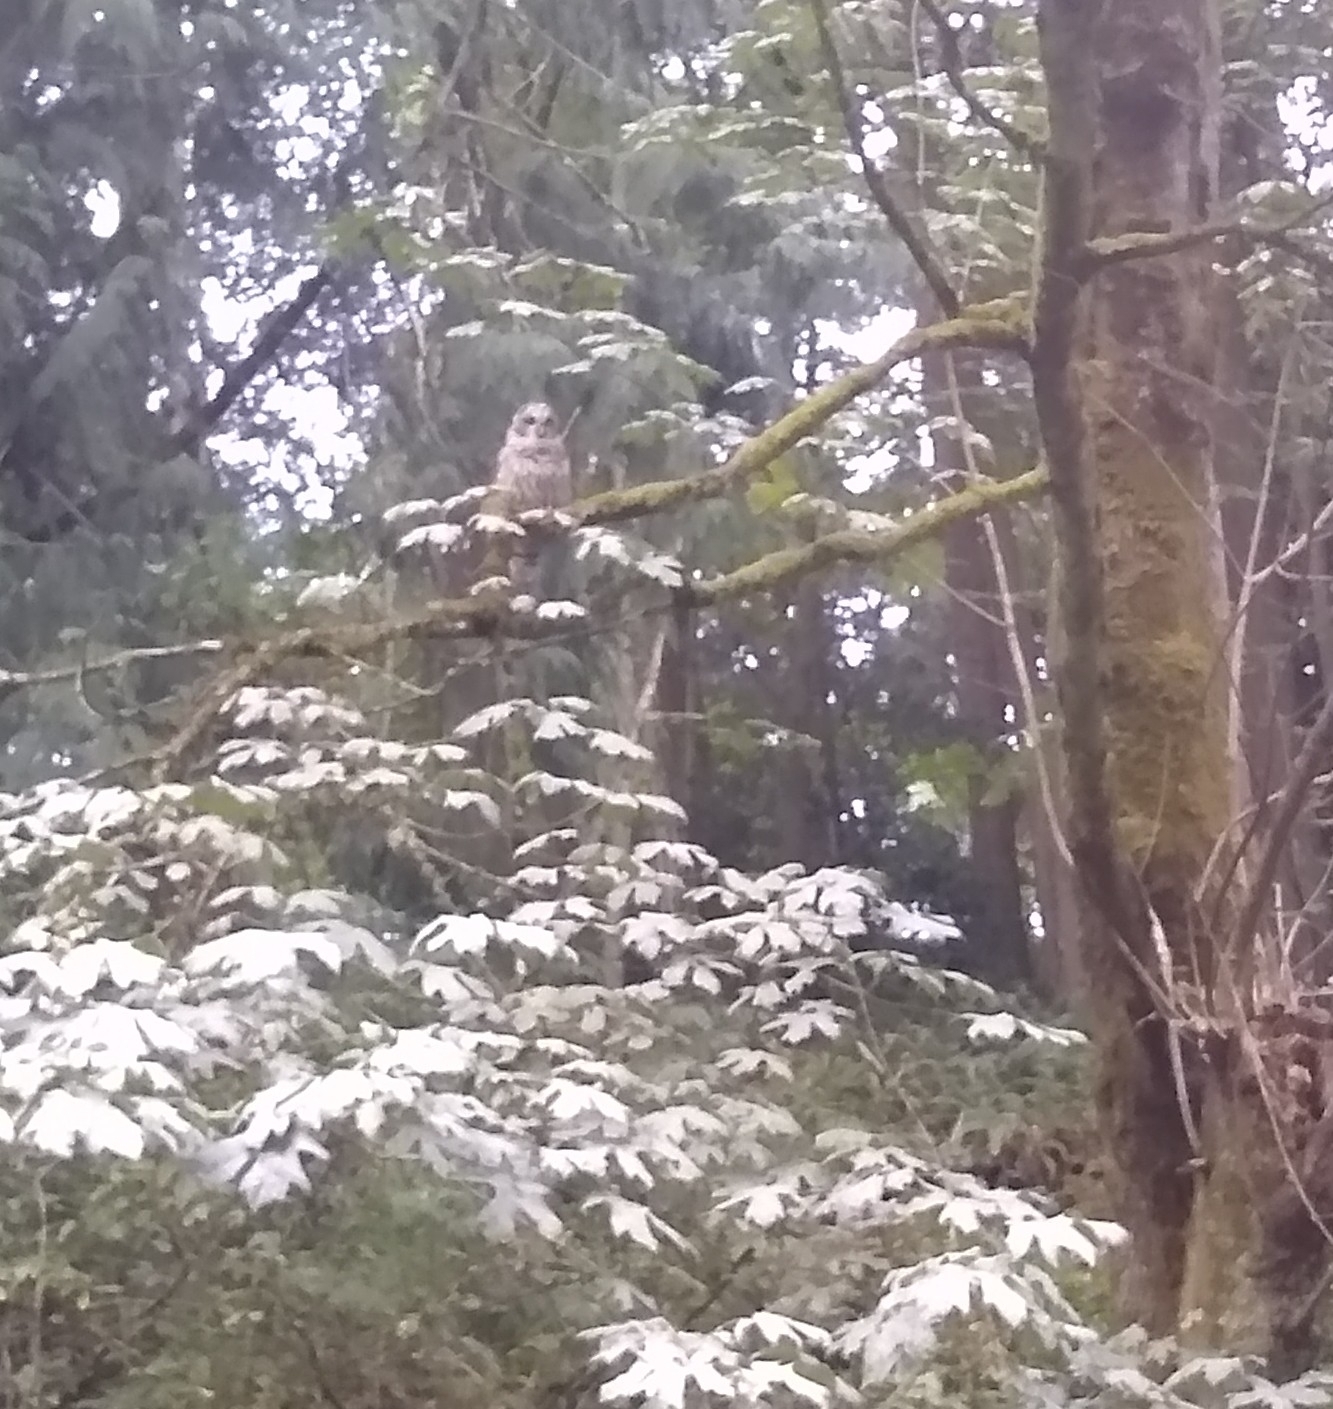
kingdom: Animalia
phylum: Chordata
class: Aves
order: Strigiformes
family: Strigidae
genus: Strix
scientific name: Strix varia
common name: Barred owl
